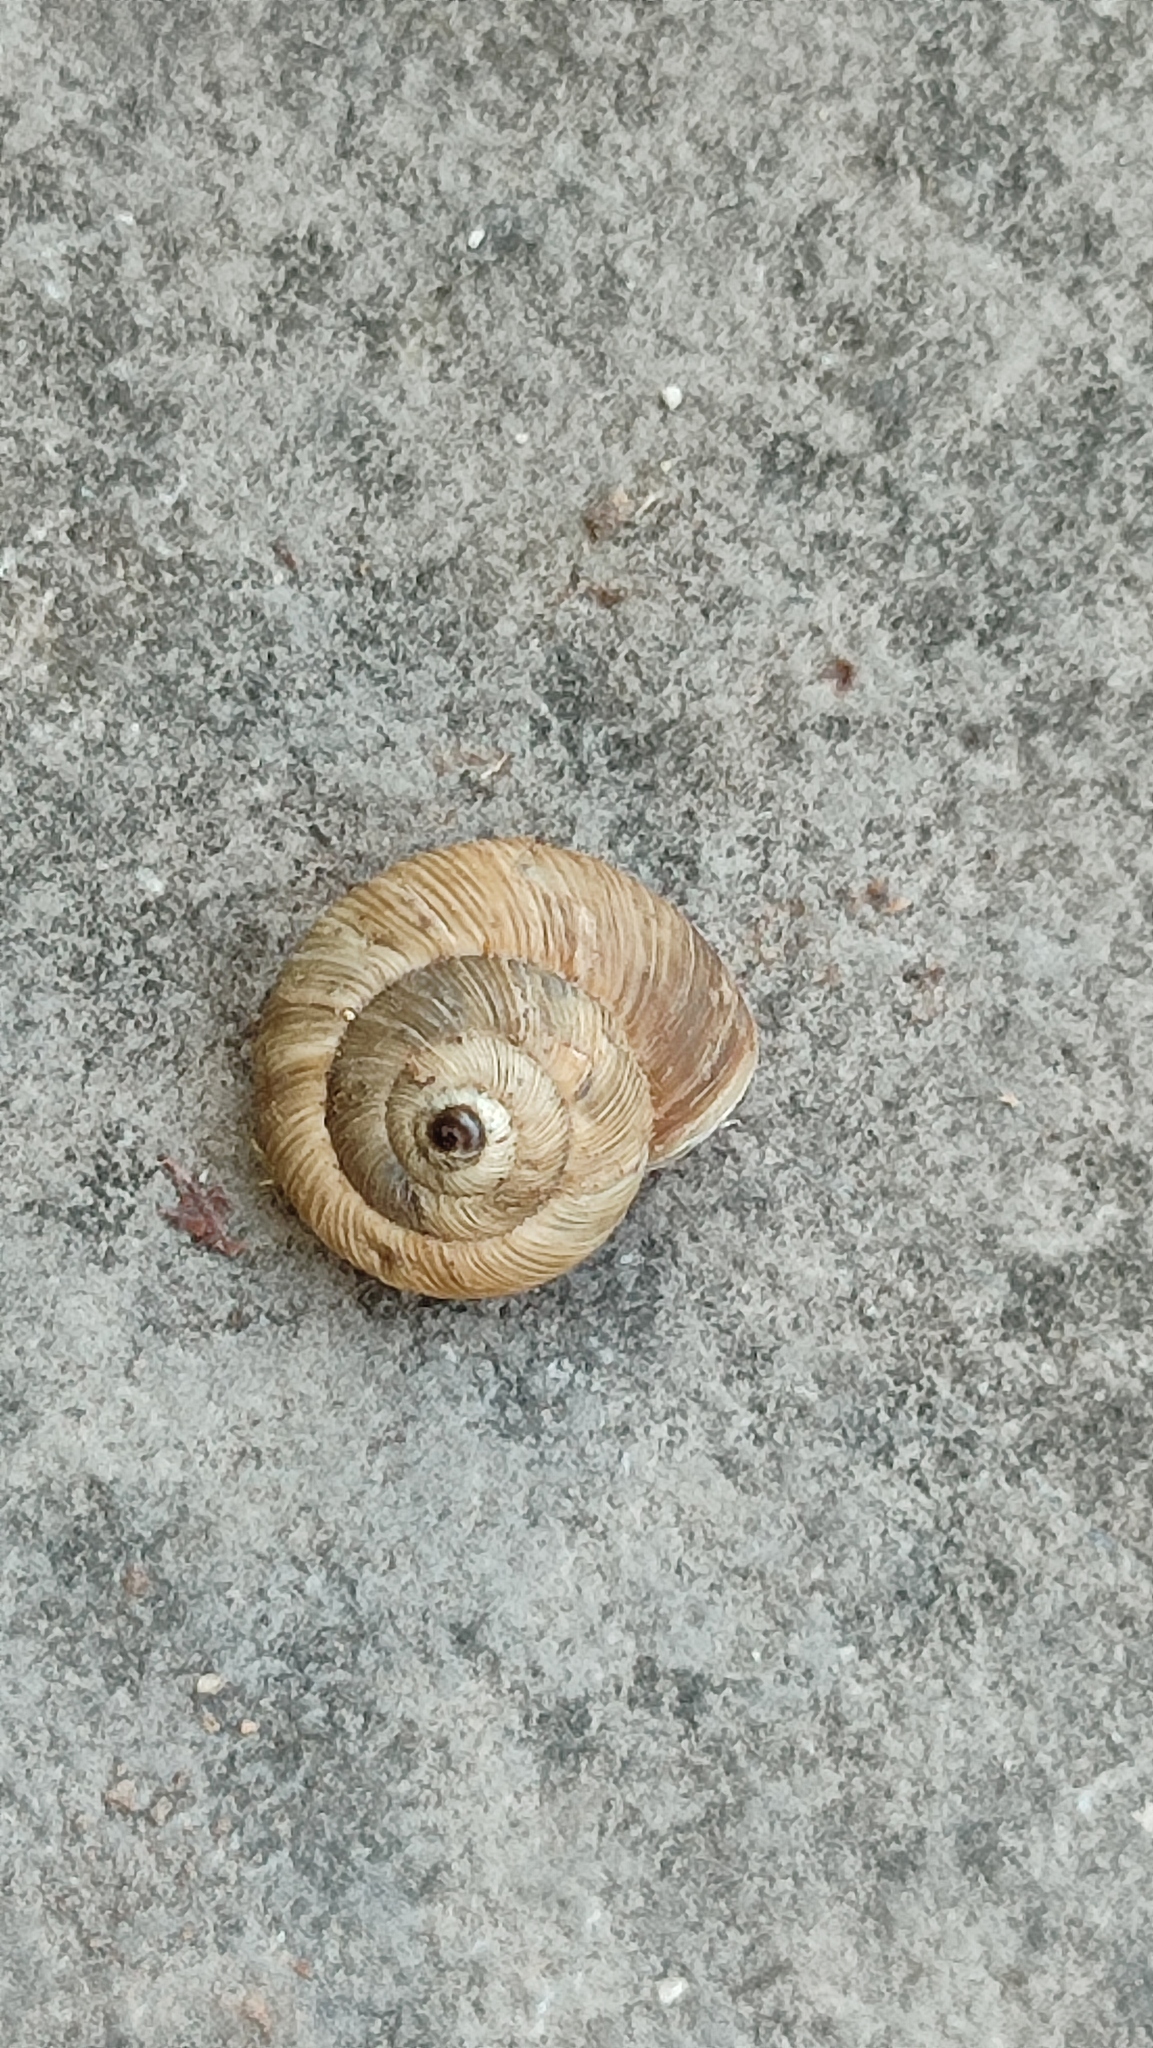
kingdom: Animalia
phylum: Mollusca
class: Gastropoda
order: Stylommatophora
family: Geomitridae
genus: Cernuella
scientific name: Cernuella cisalpina
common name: Maritime gardensnail
